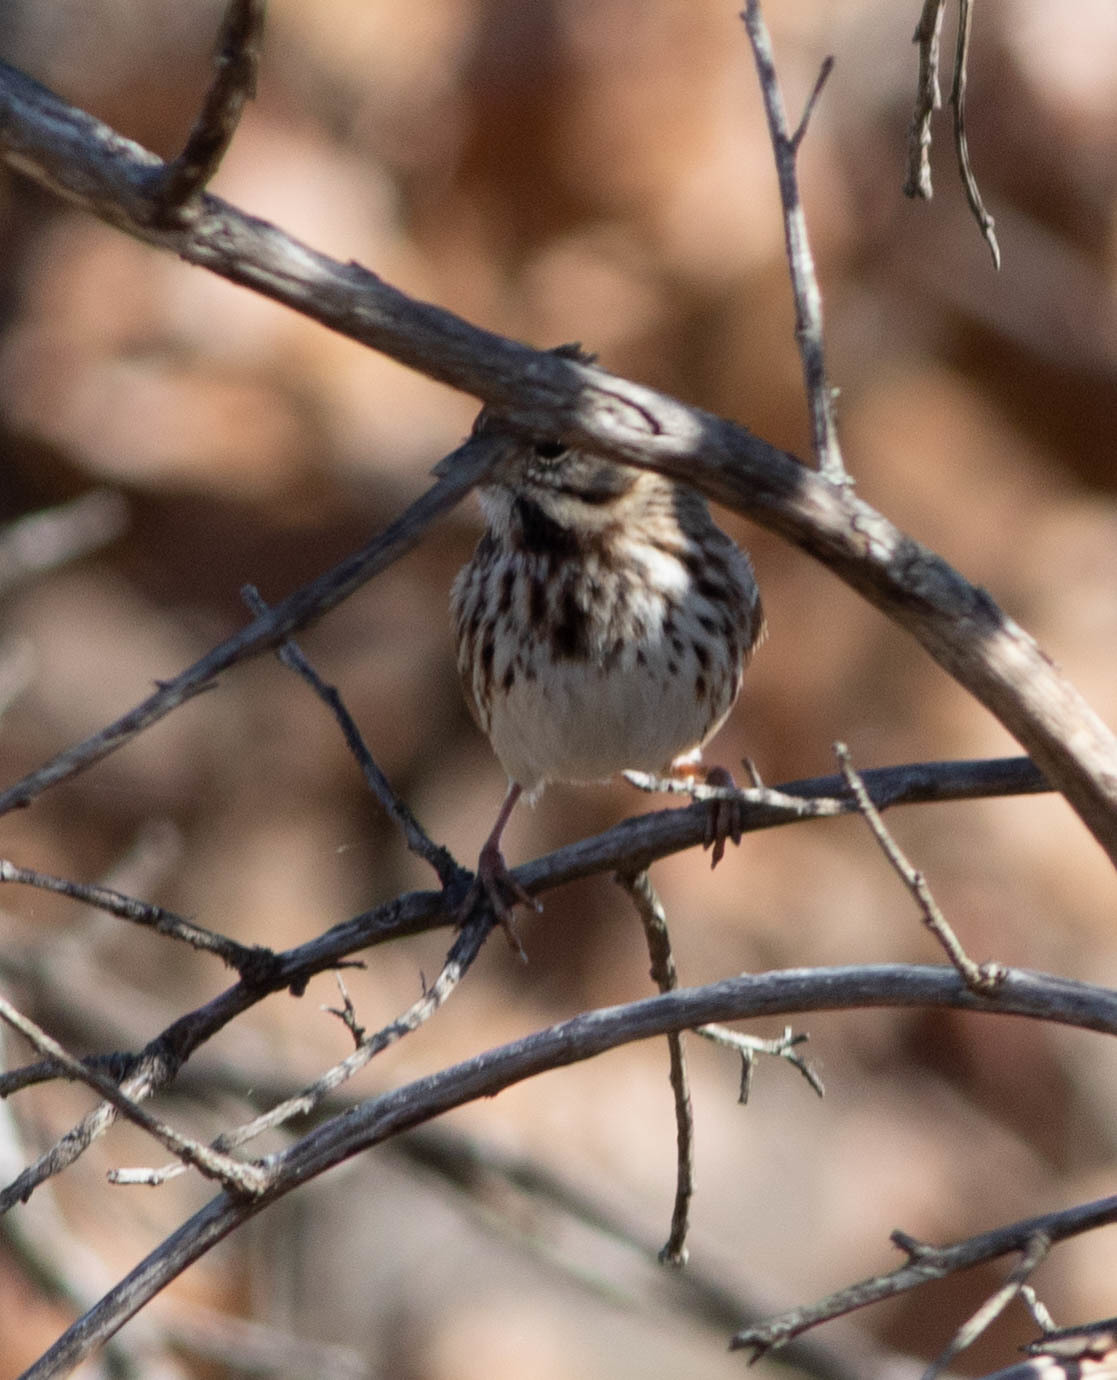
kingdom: Animalia
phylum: Chordata
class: Aves
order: Passeriformes
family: Passerellidae
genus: Melospiza
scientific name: Melospiza melodia
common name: Song sparrow
